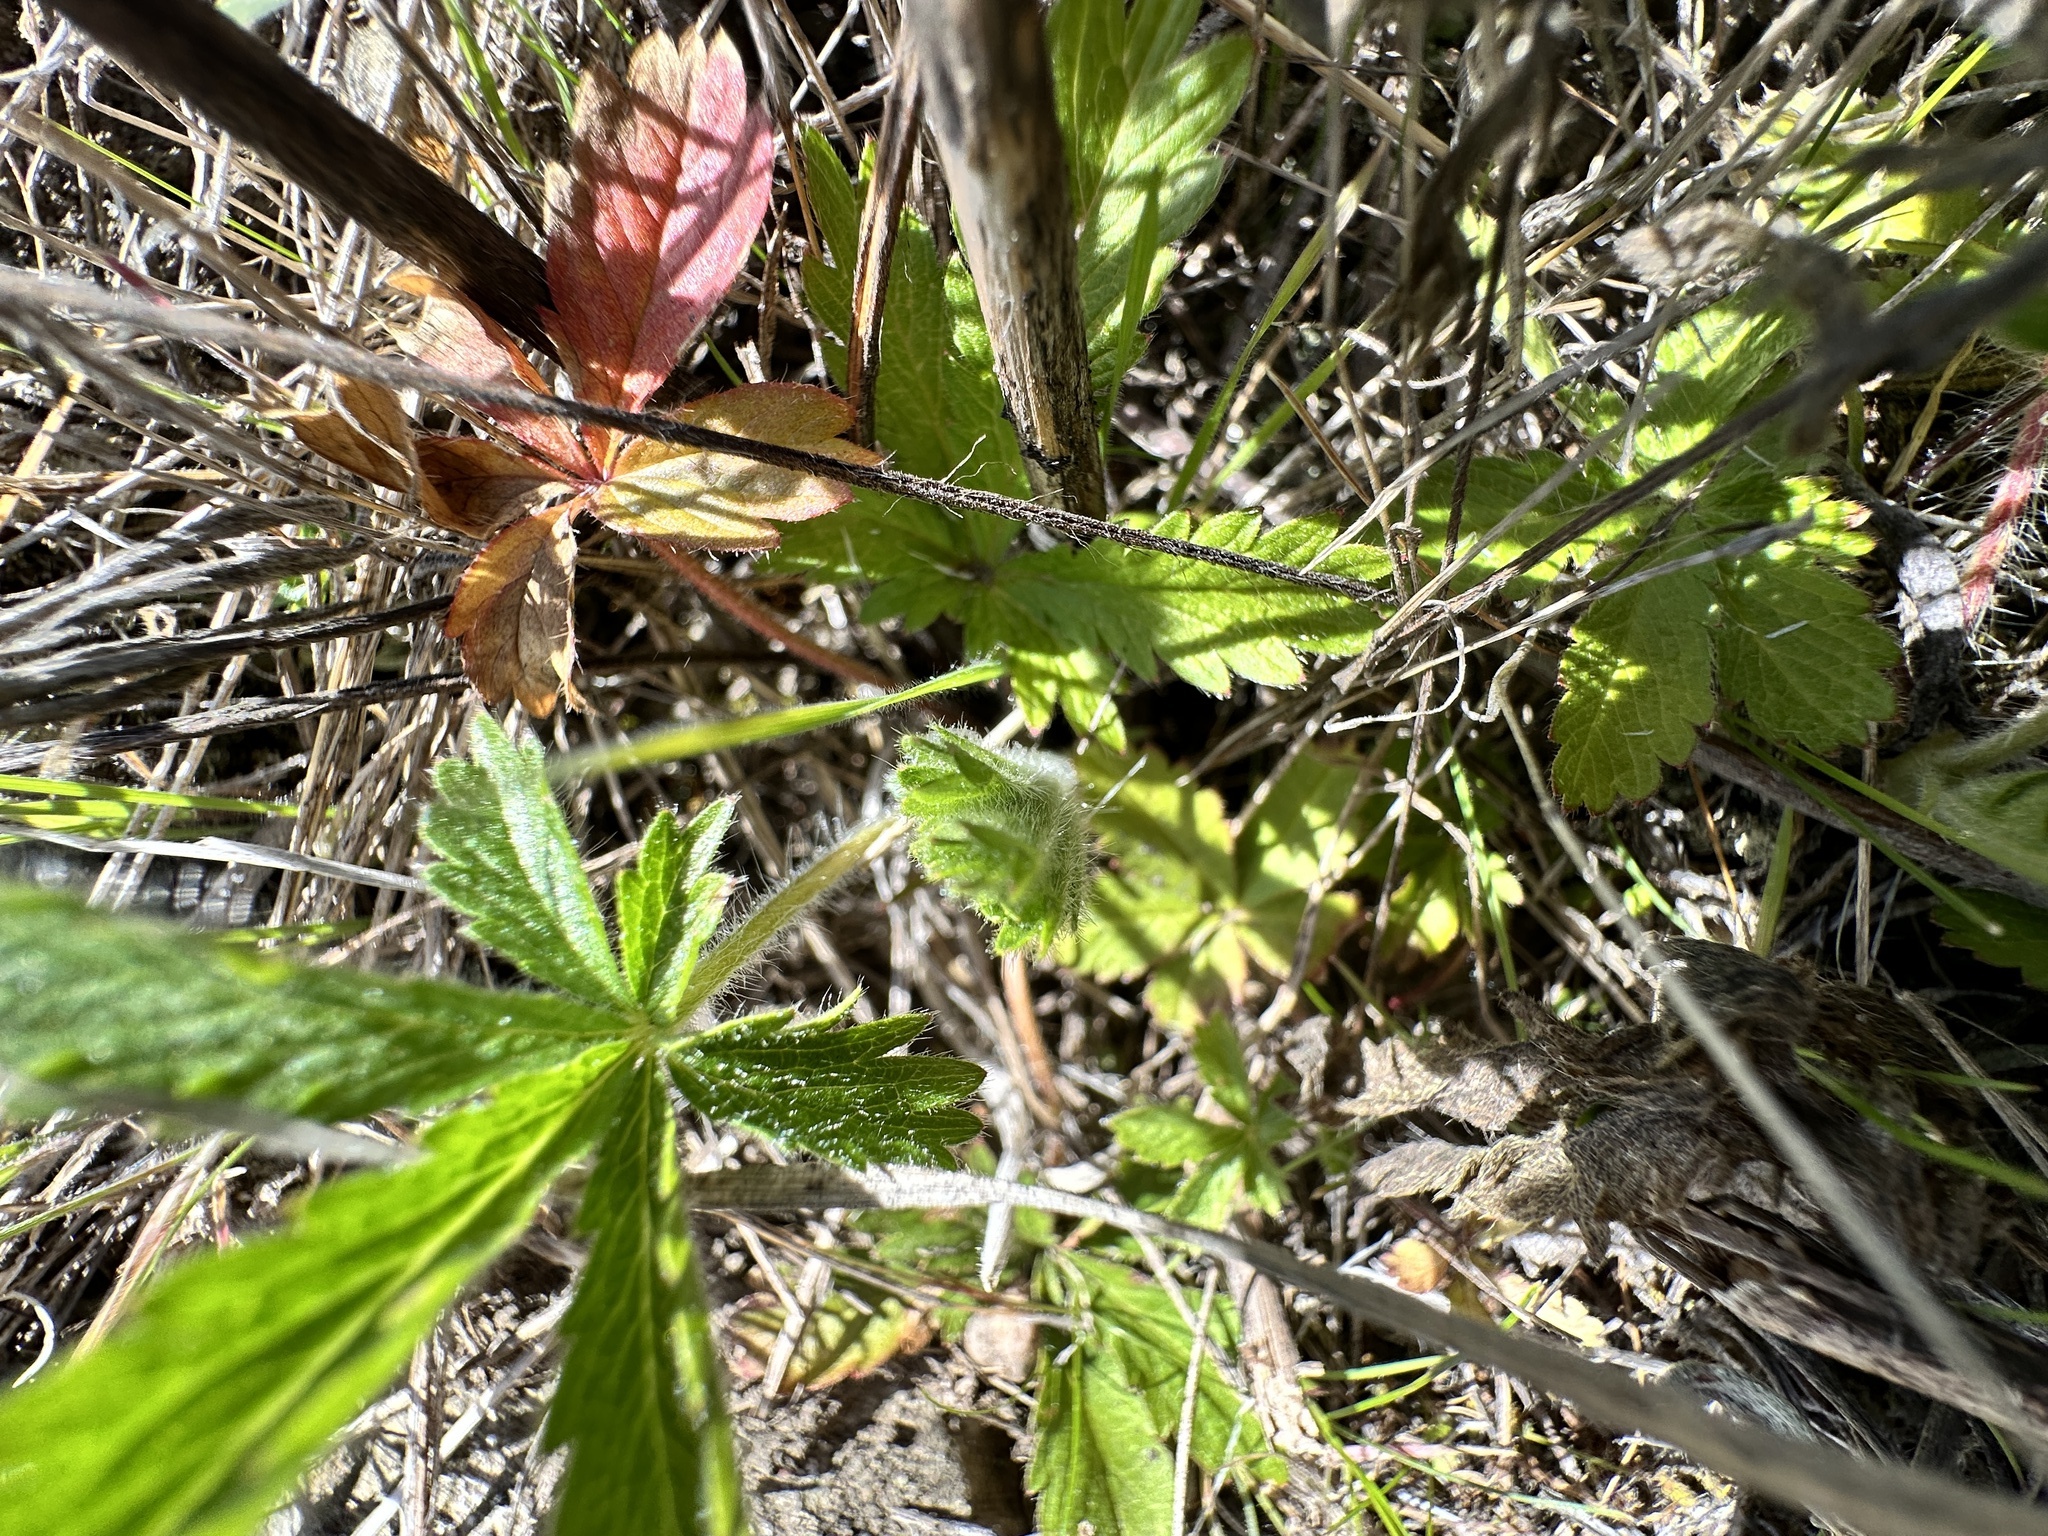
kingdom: Plantae
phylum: Tracheophyta
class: Magnoliopsida
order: Rosales
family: Rosaceae
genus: Potentilla
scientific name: Potentilla recta
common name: Sulphur cinquefoil
